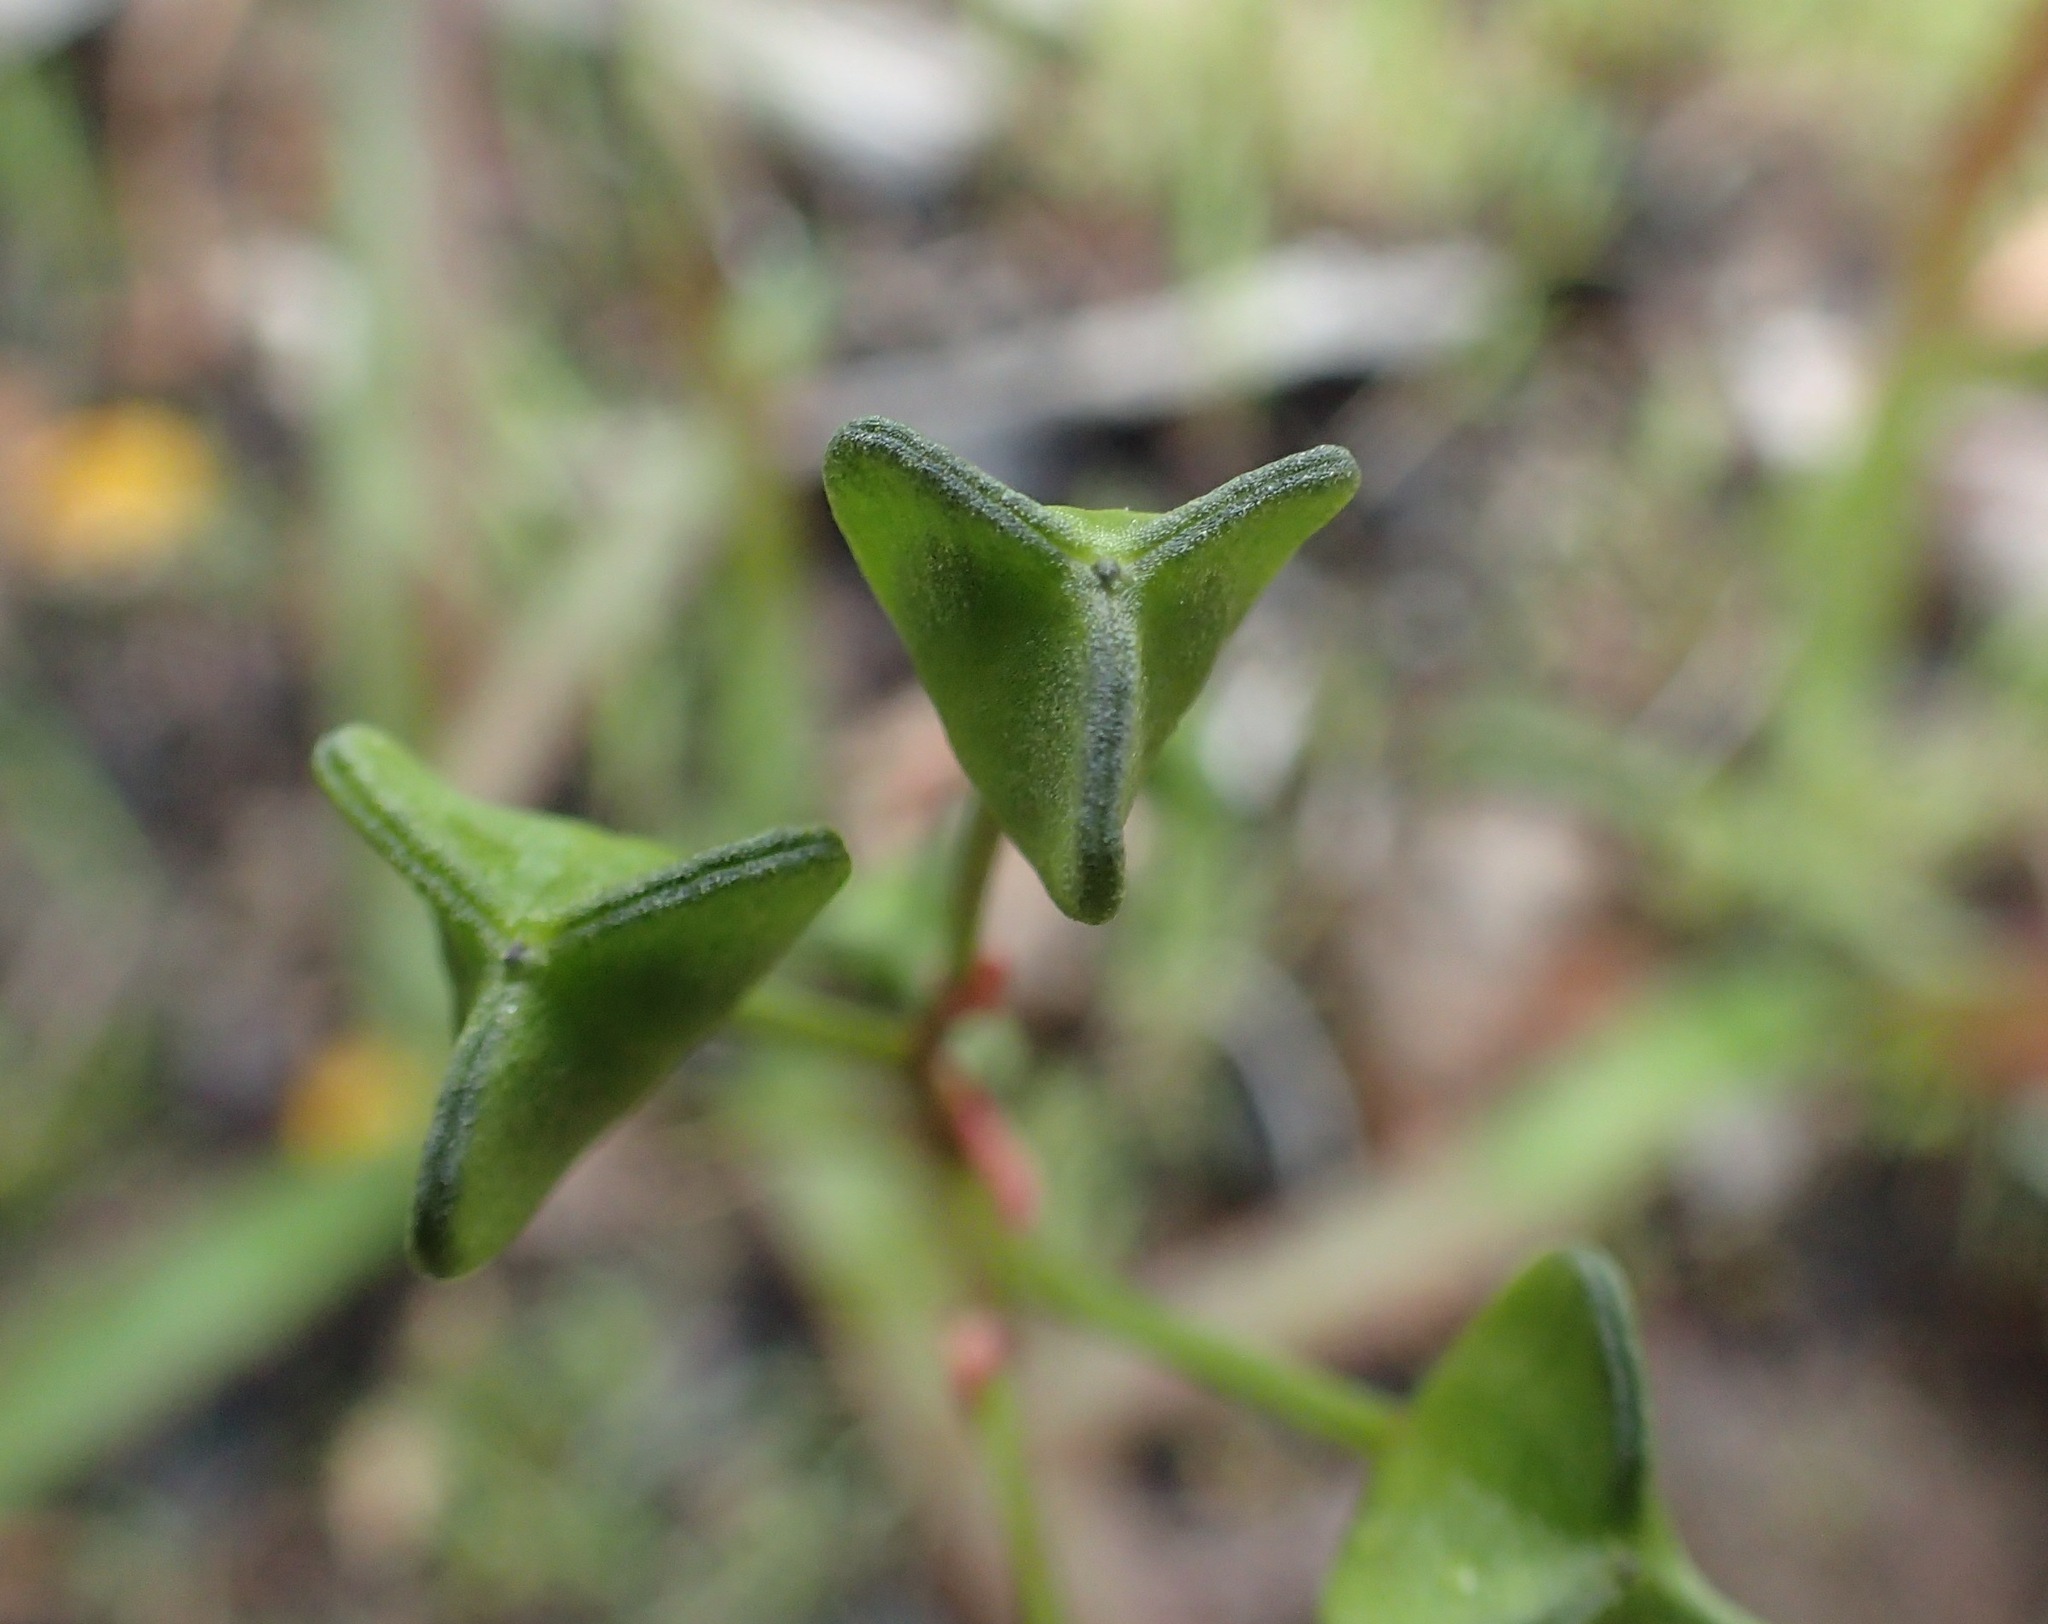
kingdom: Plantae
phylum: Tracheophyta
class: Liliopsida
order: Asparagales
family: Asphodelaceae
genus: Chamaescilla
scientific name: Chamaescilla corymbosa
